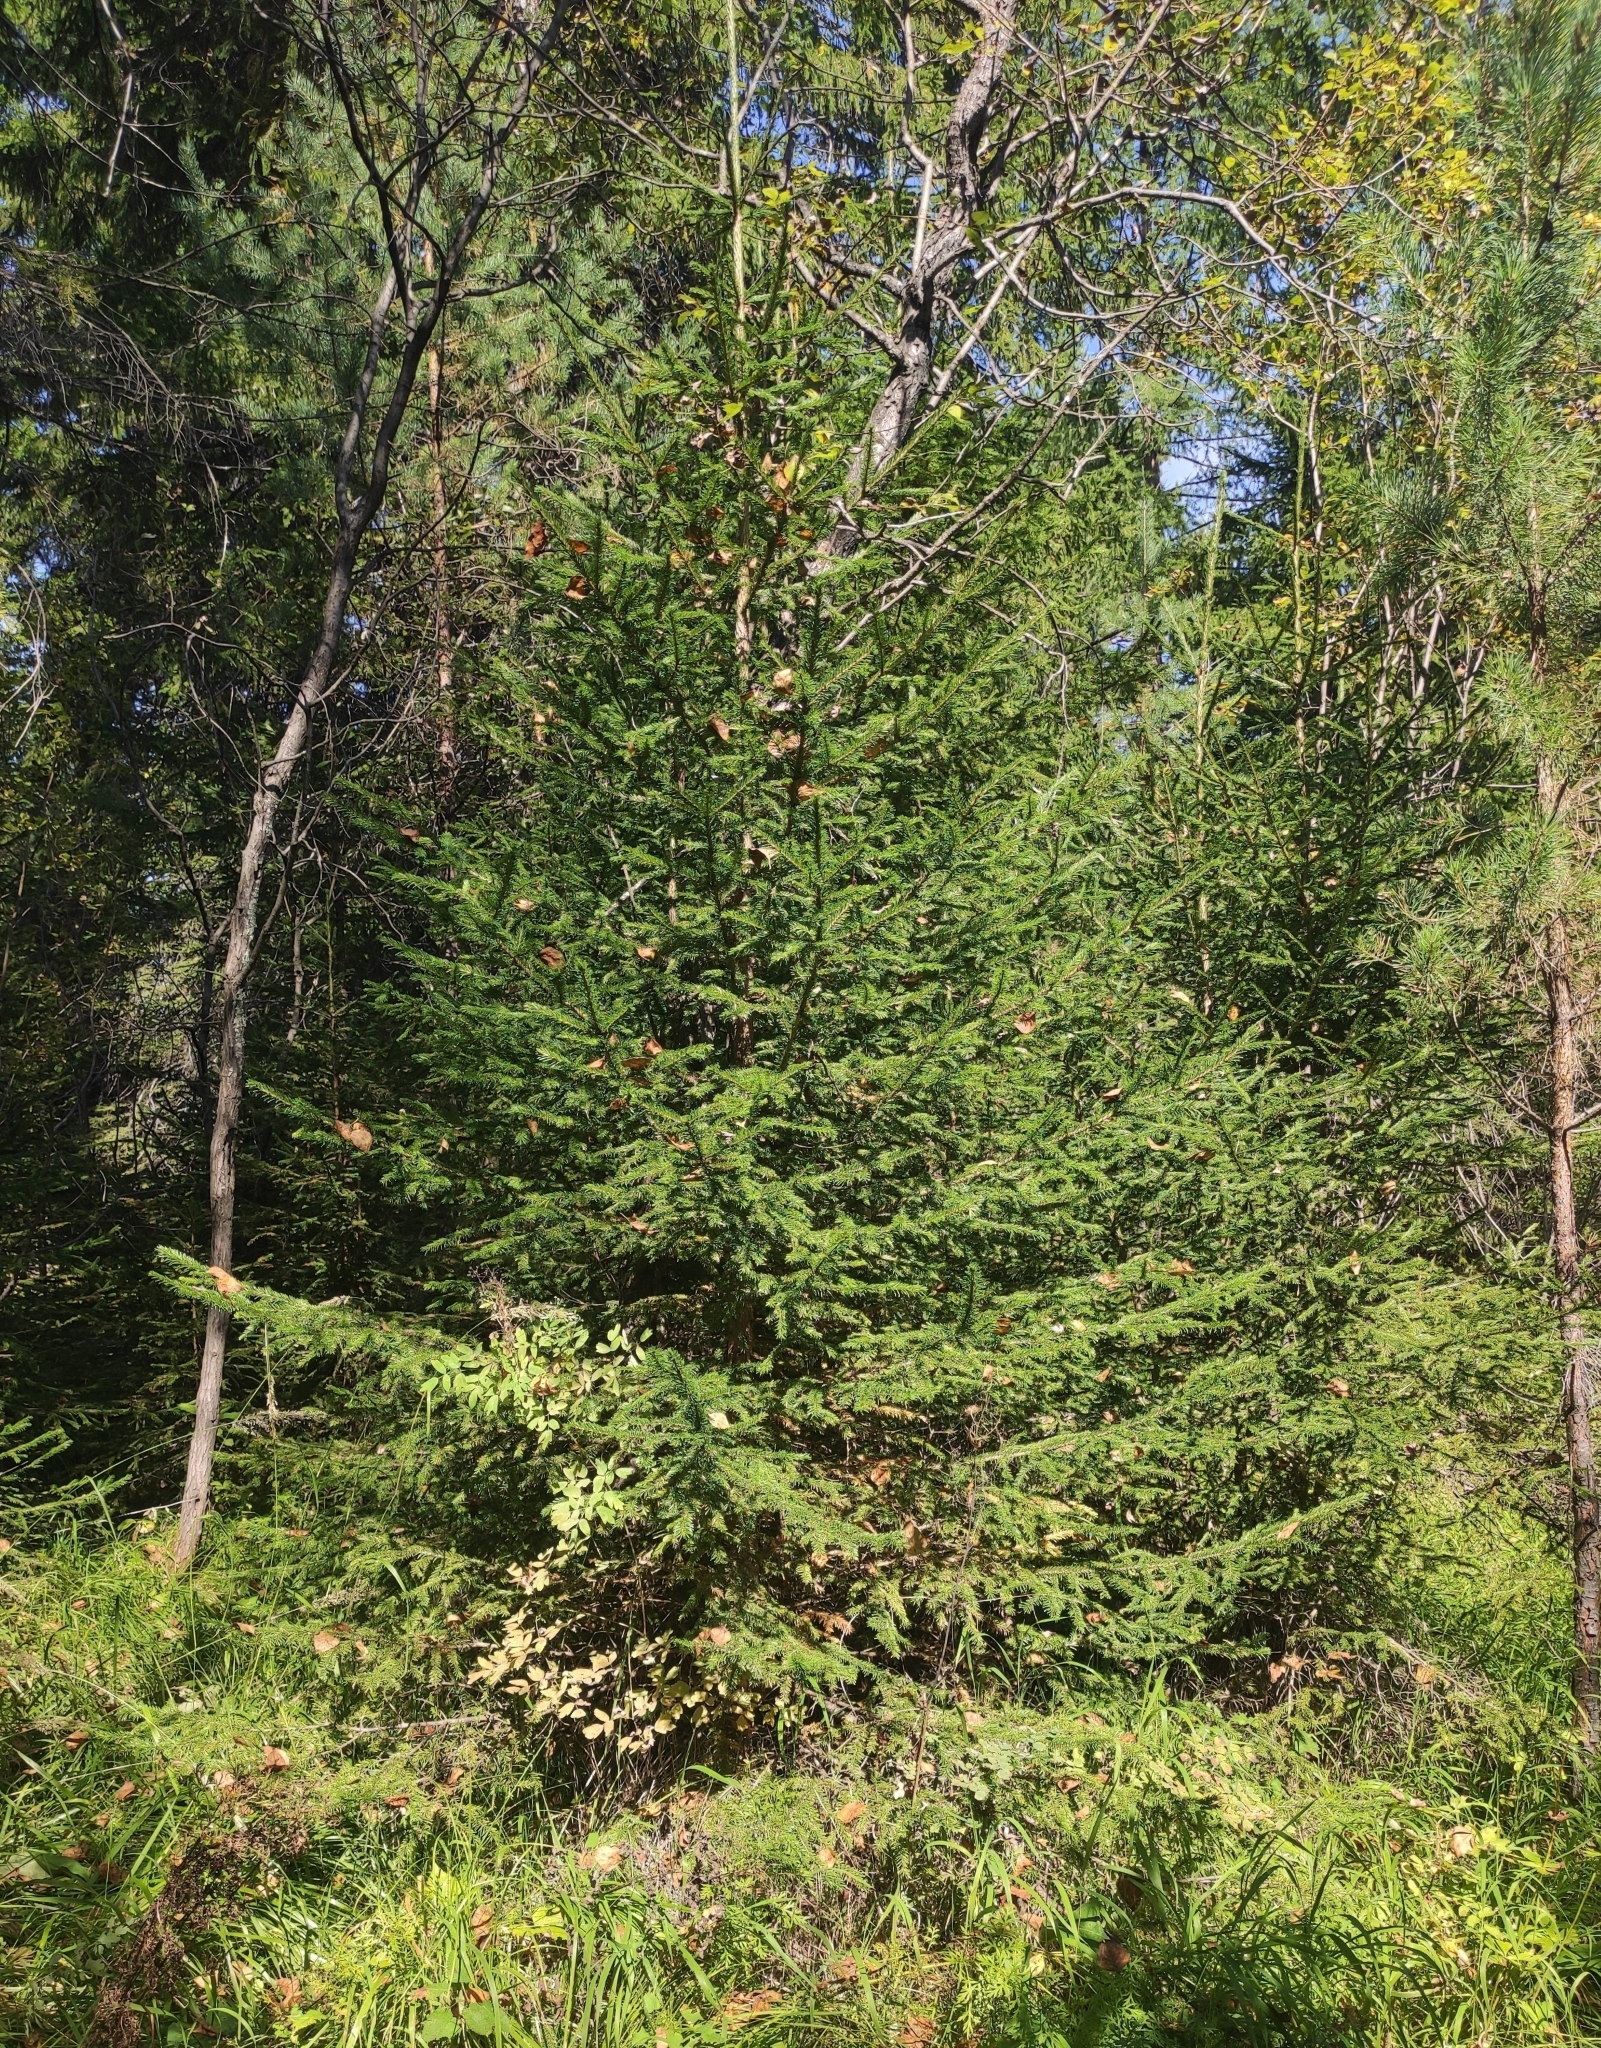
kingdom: Plantae
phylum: Tracheophyta
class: Pinopsida
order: Pinales
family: Pinaceae
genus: Picea
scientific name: Picea obovata
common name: Siberian spruce
